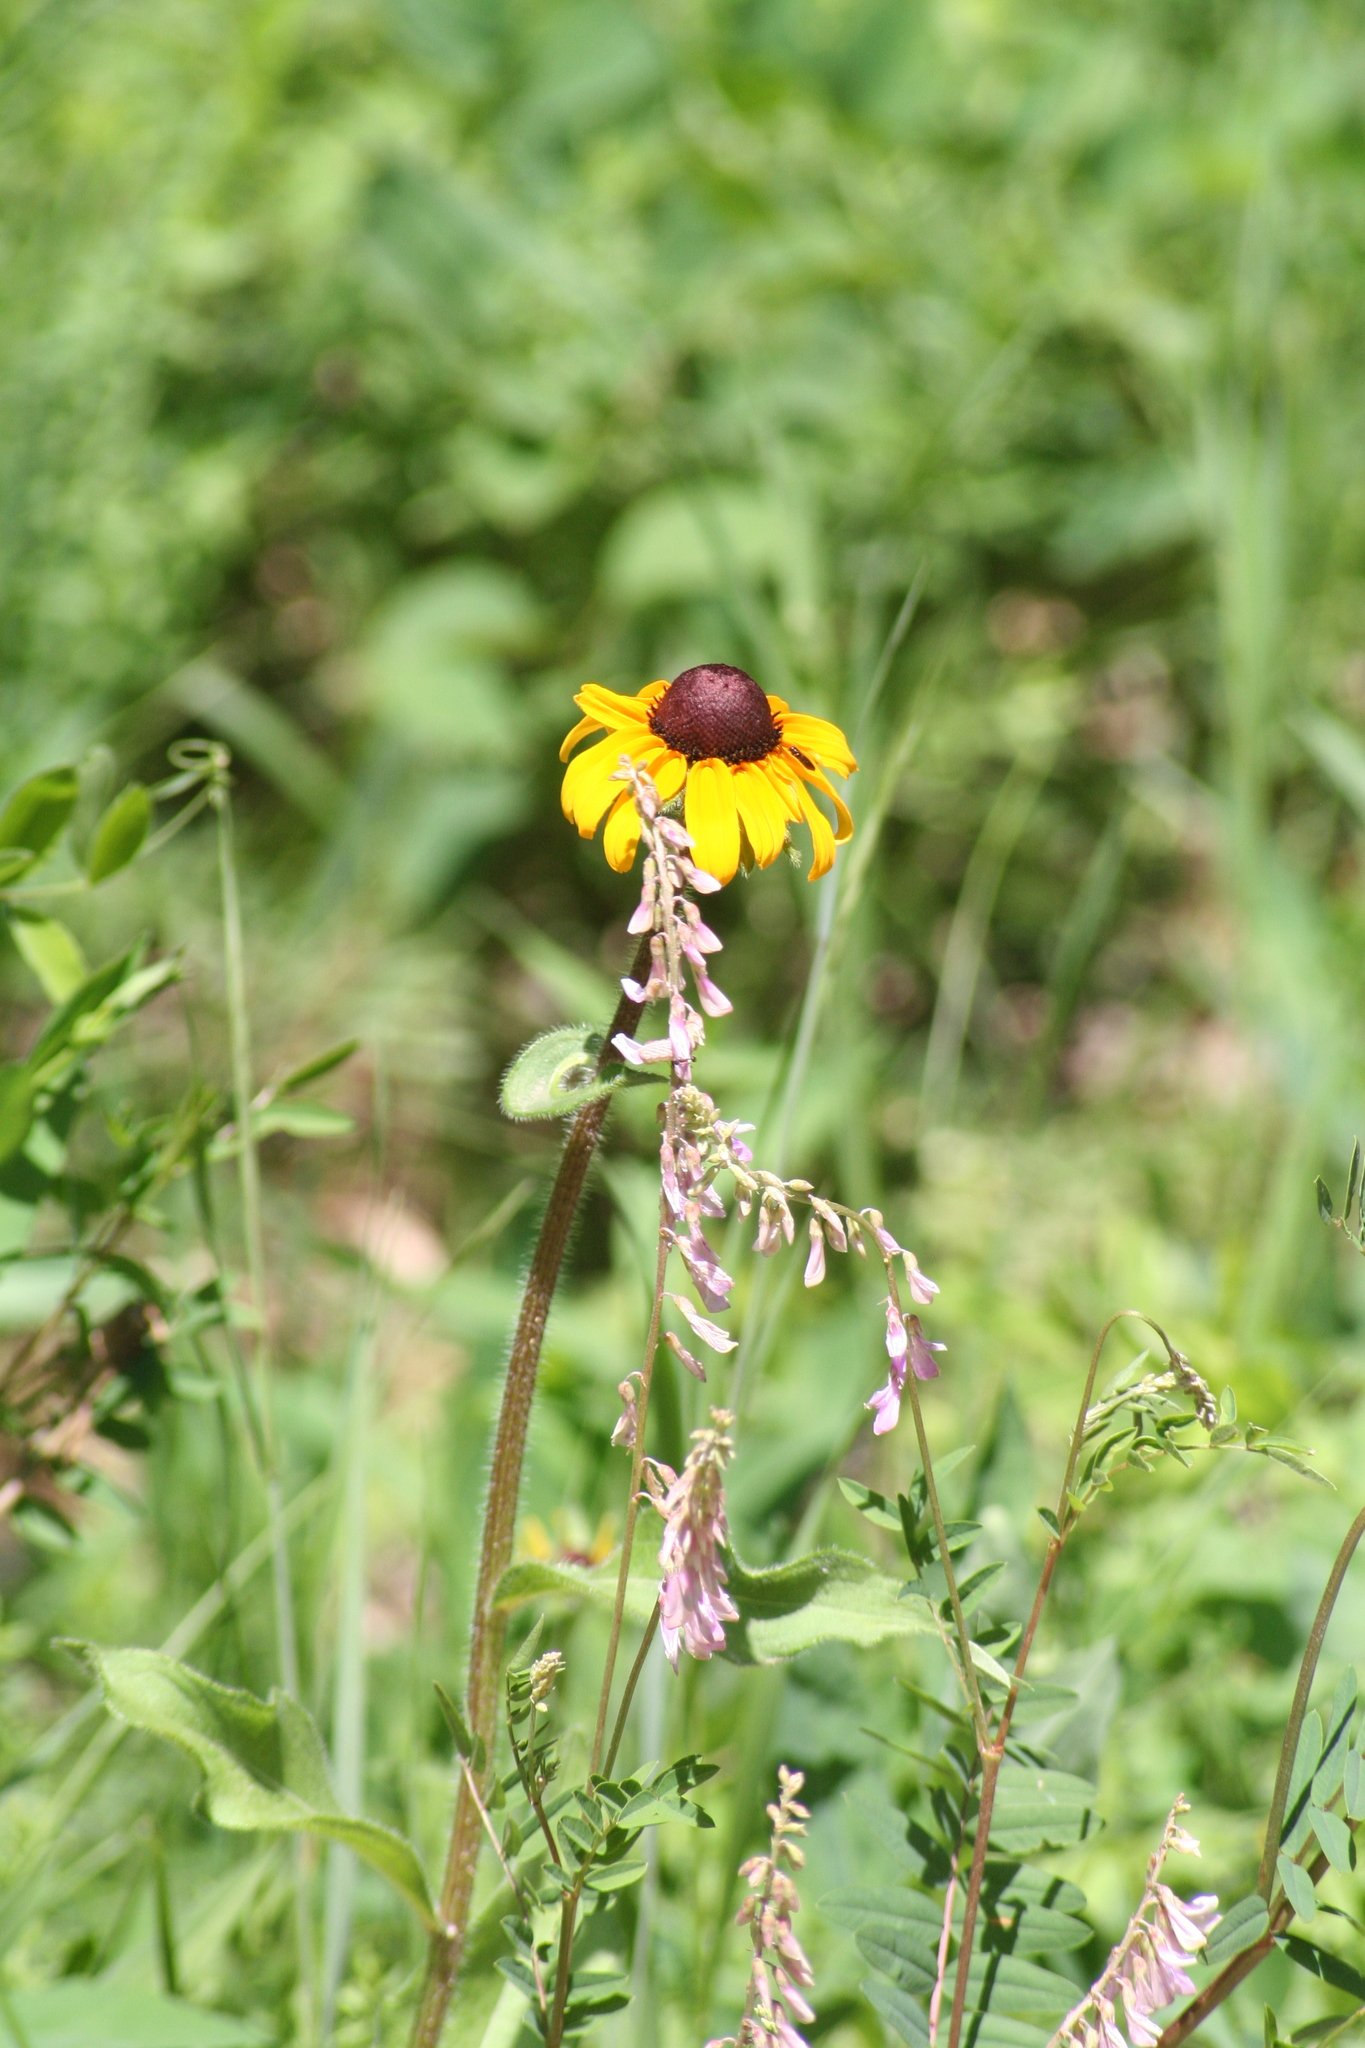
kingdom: Plantae
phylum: Tracheophyta
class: Magnoliopsida
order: Asterales
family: Asteraceae
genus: Rudbeckia
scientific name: Rudbeckia hirta
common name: Black-eyed-susan
